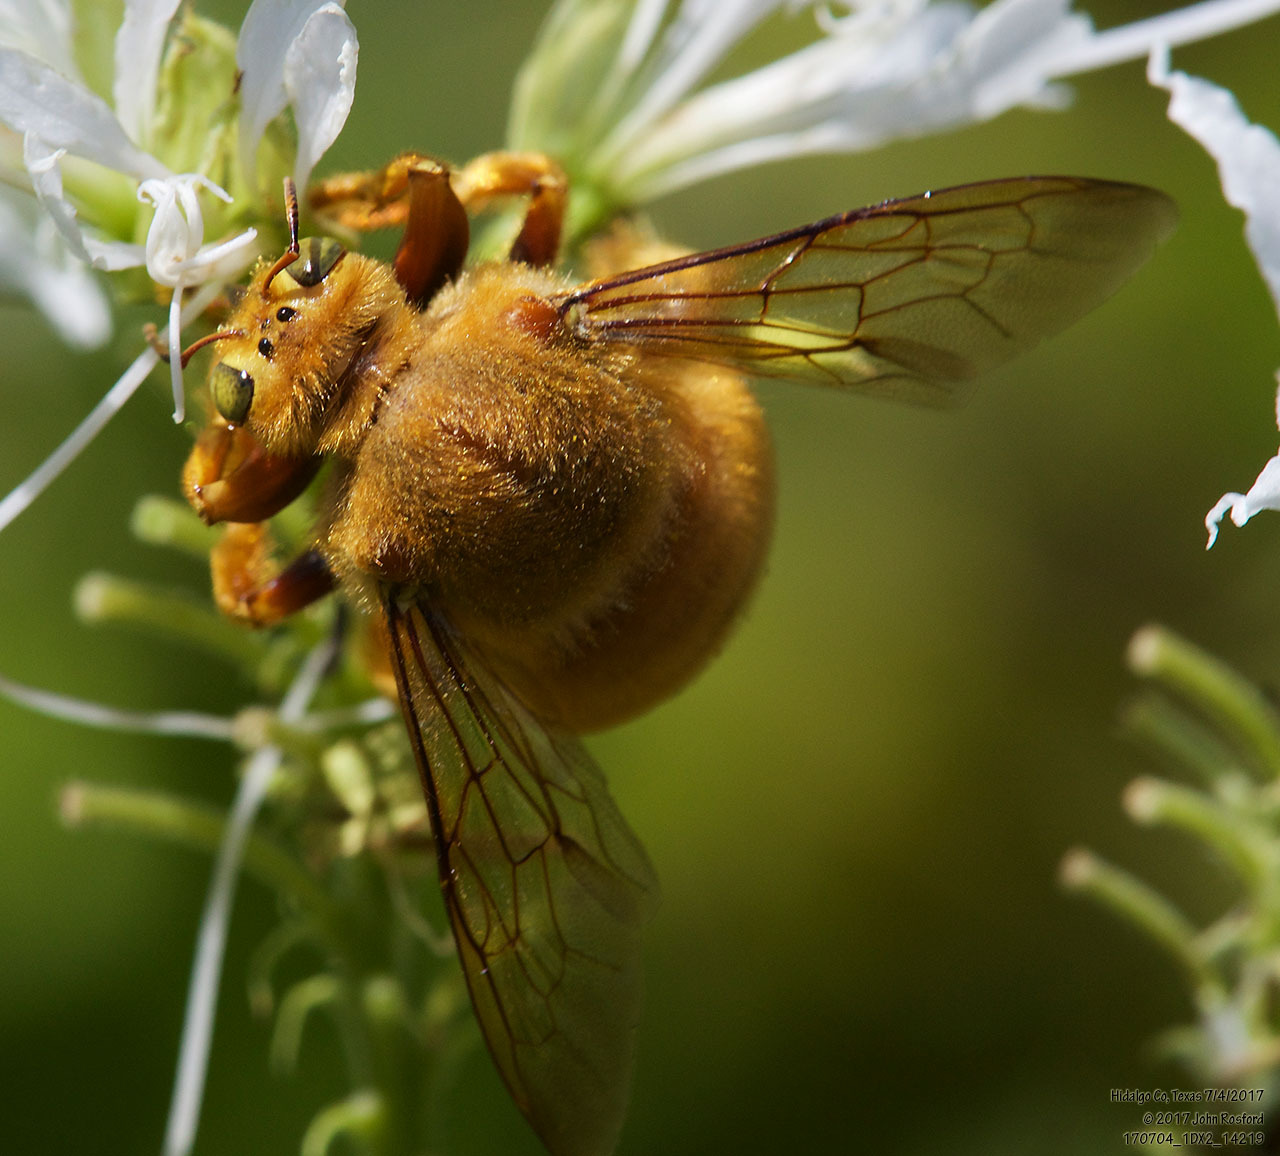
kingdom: Animalia
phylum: Arthropoda
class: Insecta
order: Hymenoptera
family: Apidae
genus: Xylocopa
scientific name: Xylocopa griswoldi
